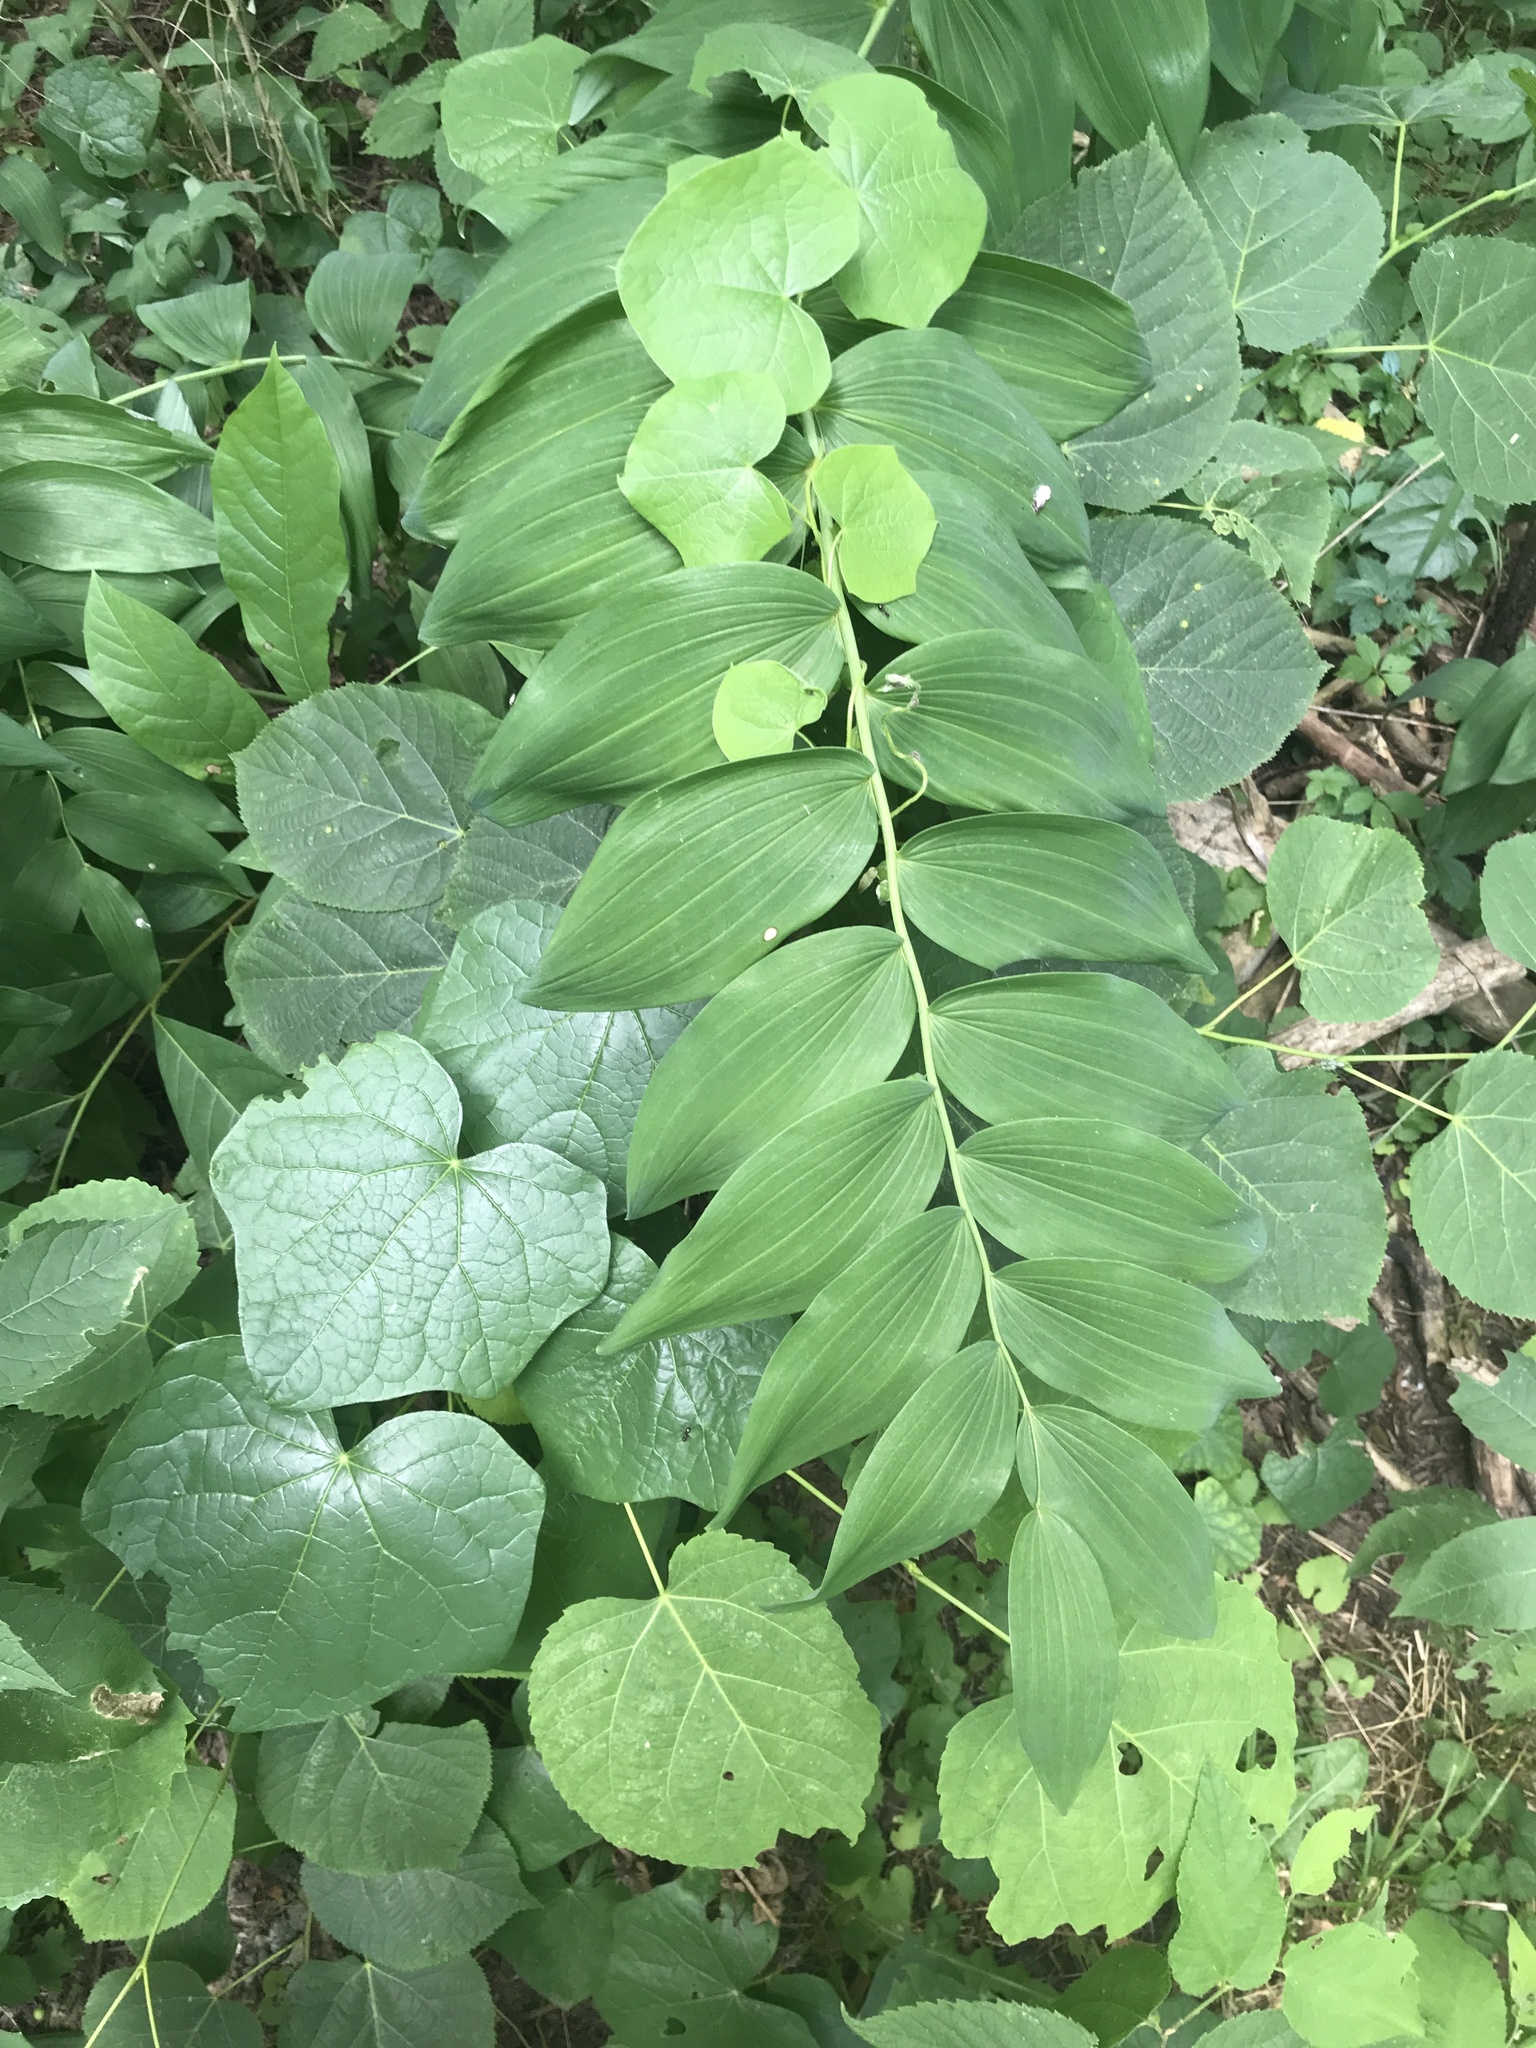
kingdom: Plantae
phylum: Tracheophyta
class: Liliopsida
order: Asparagales
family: Asparagaceae
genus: Polygonatum
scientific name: Polygonatum biflorum
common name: American solomon's-seal
